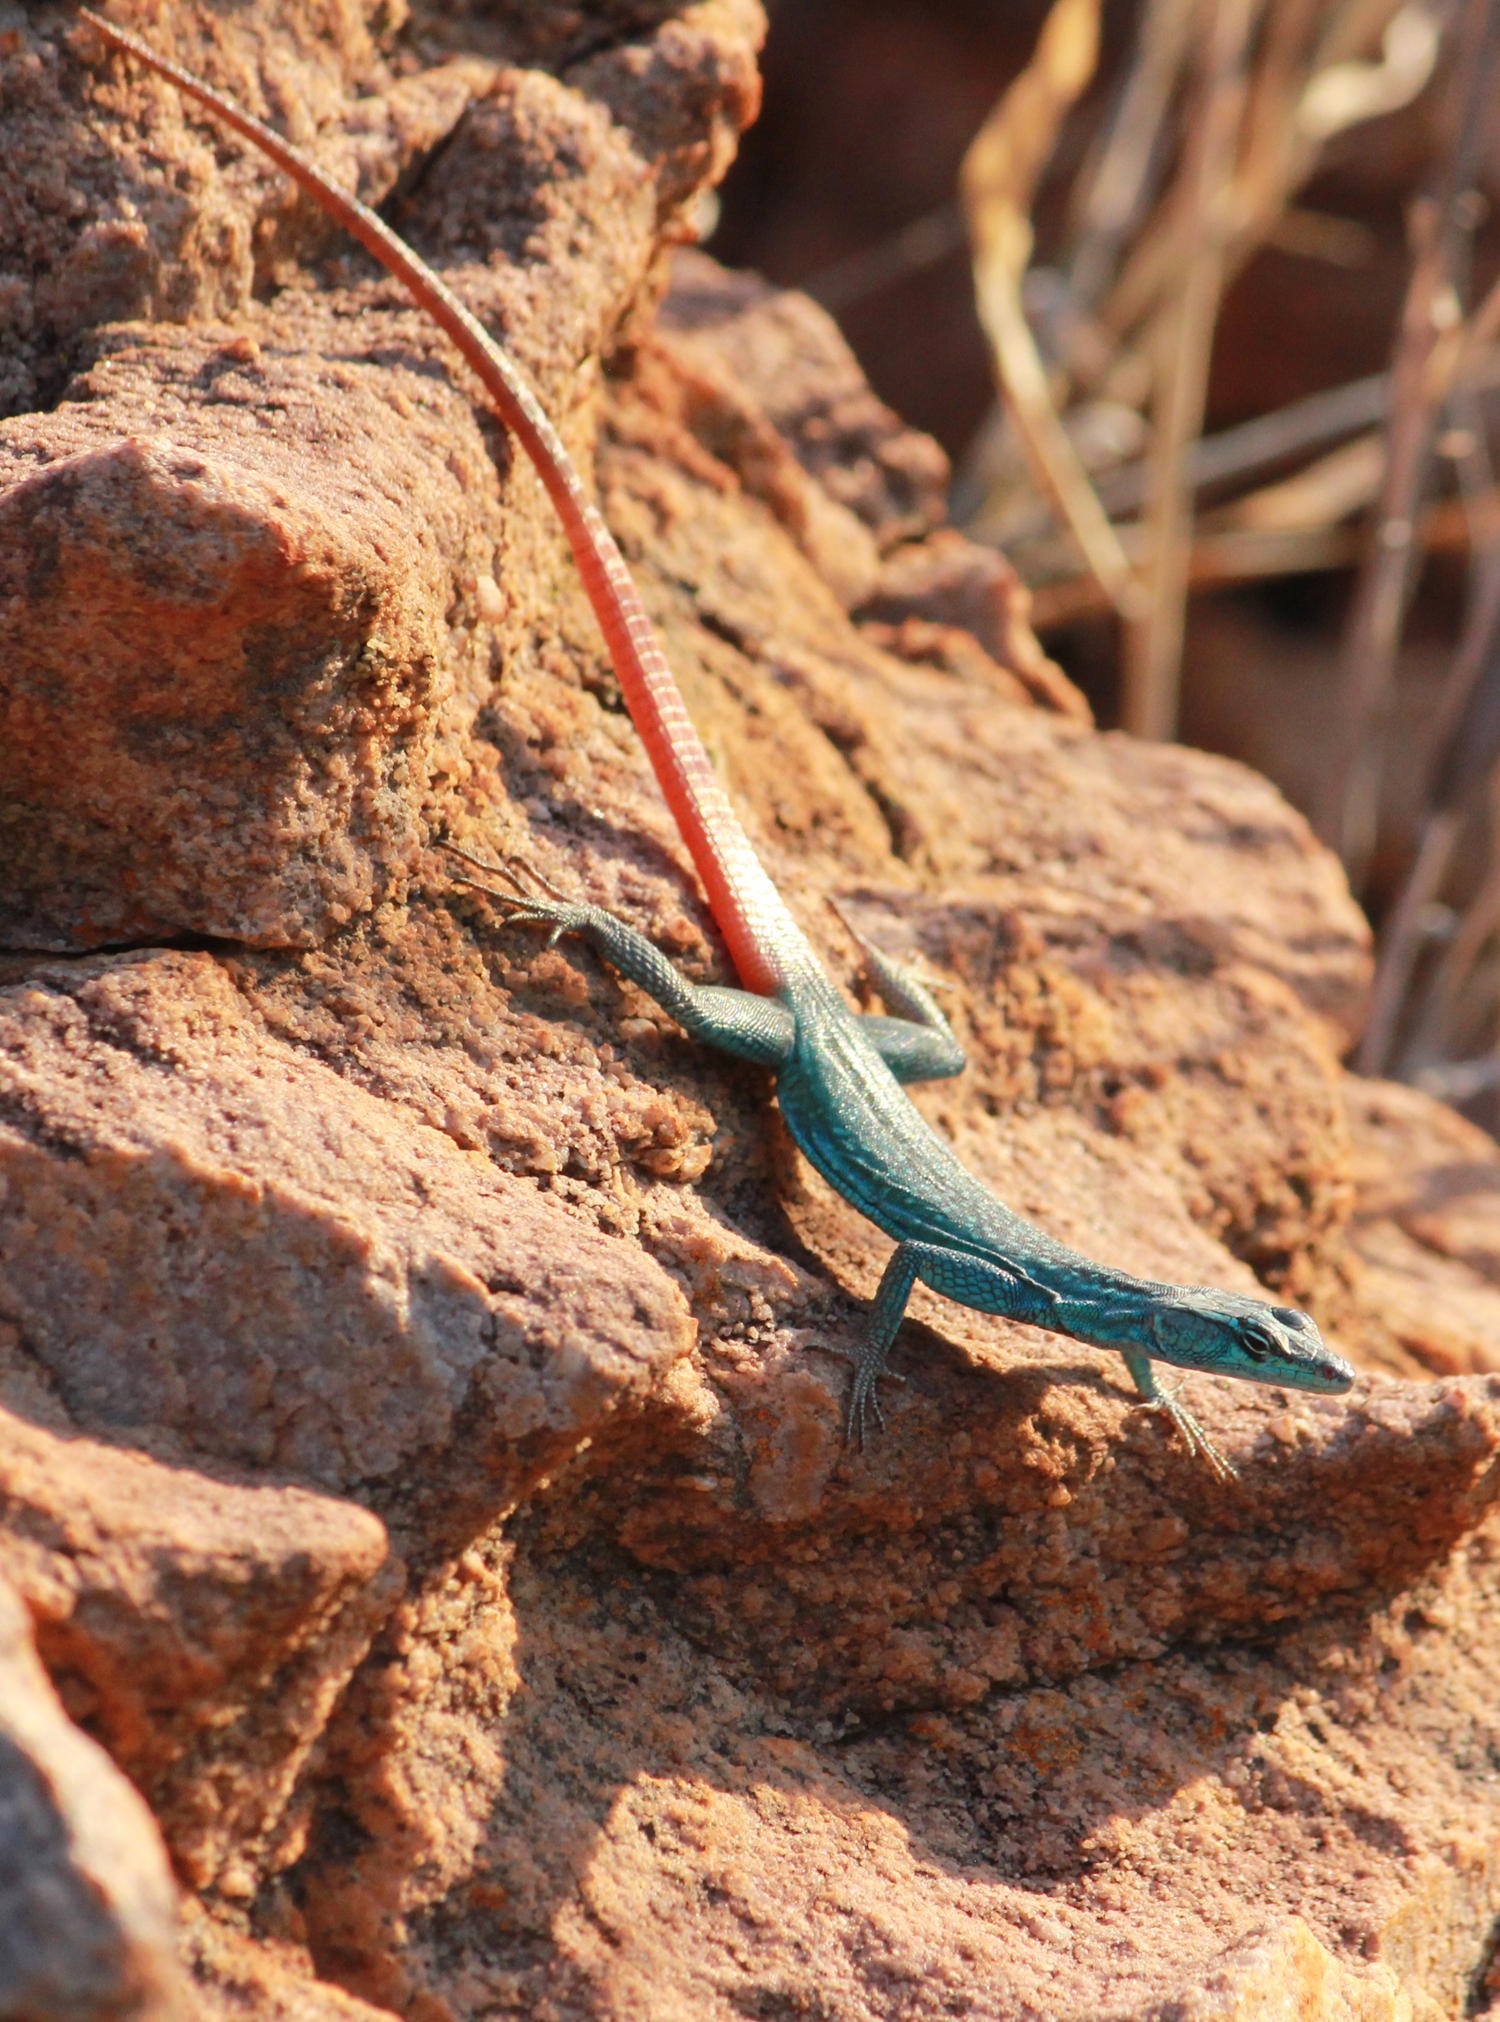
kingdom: Animalia
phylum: Chordata
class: Squamata
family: Cordylidae
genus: Platysaurus
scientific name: Platysaurus relictus
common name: Soutpansberg flat lizard
